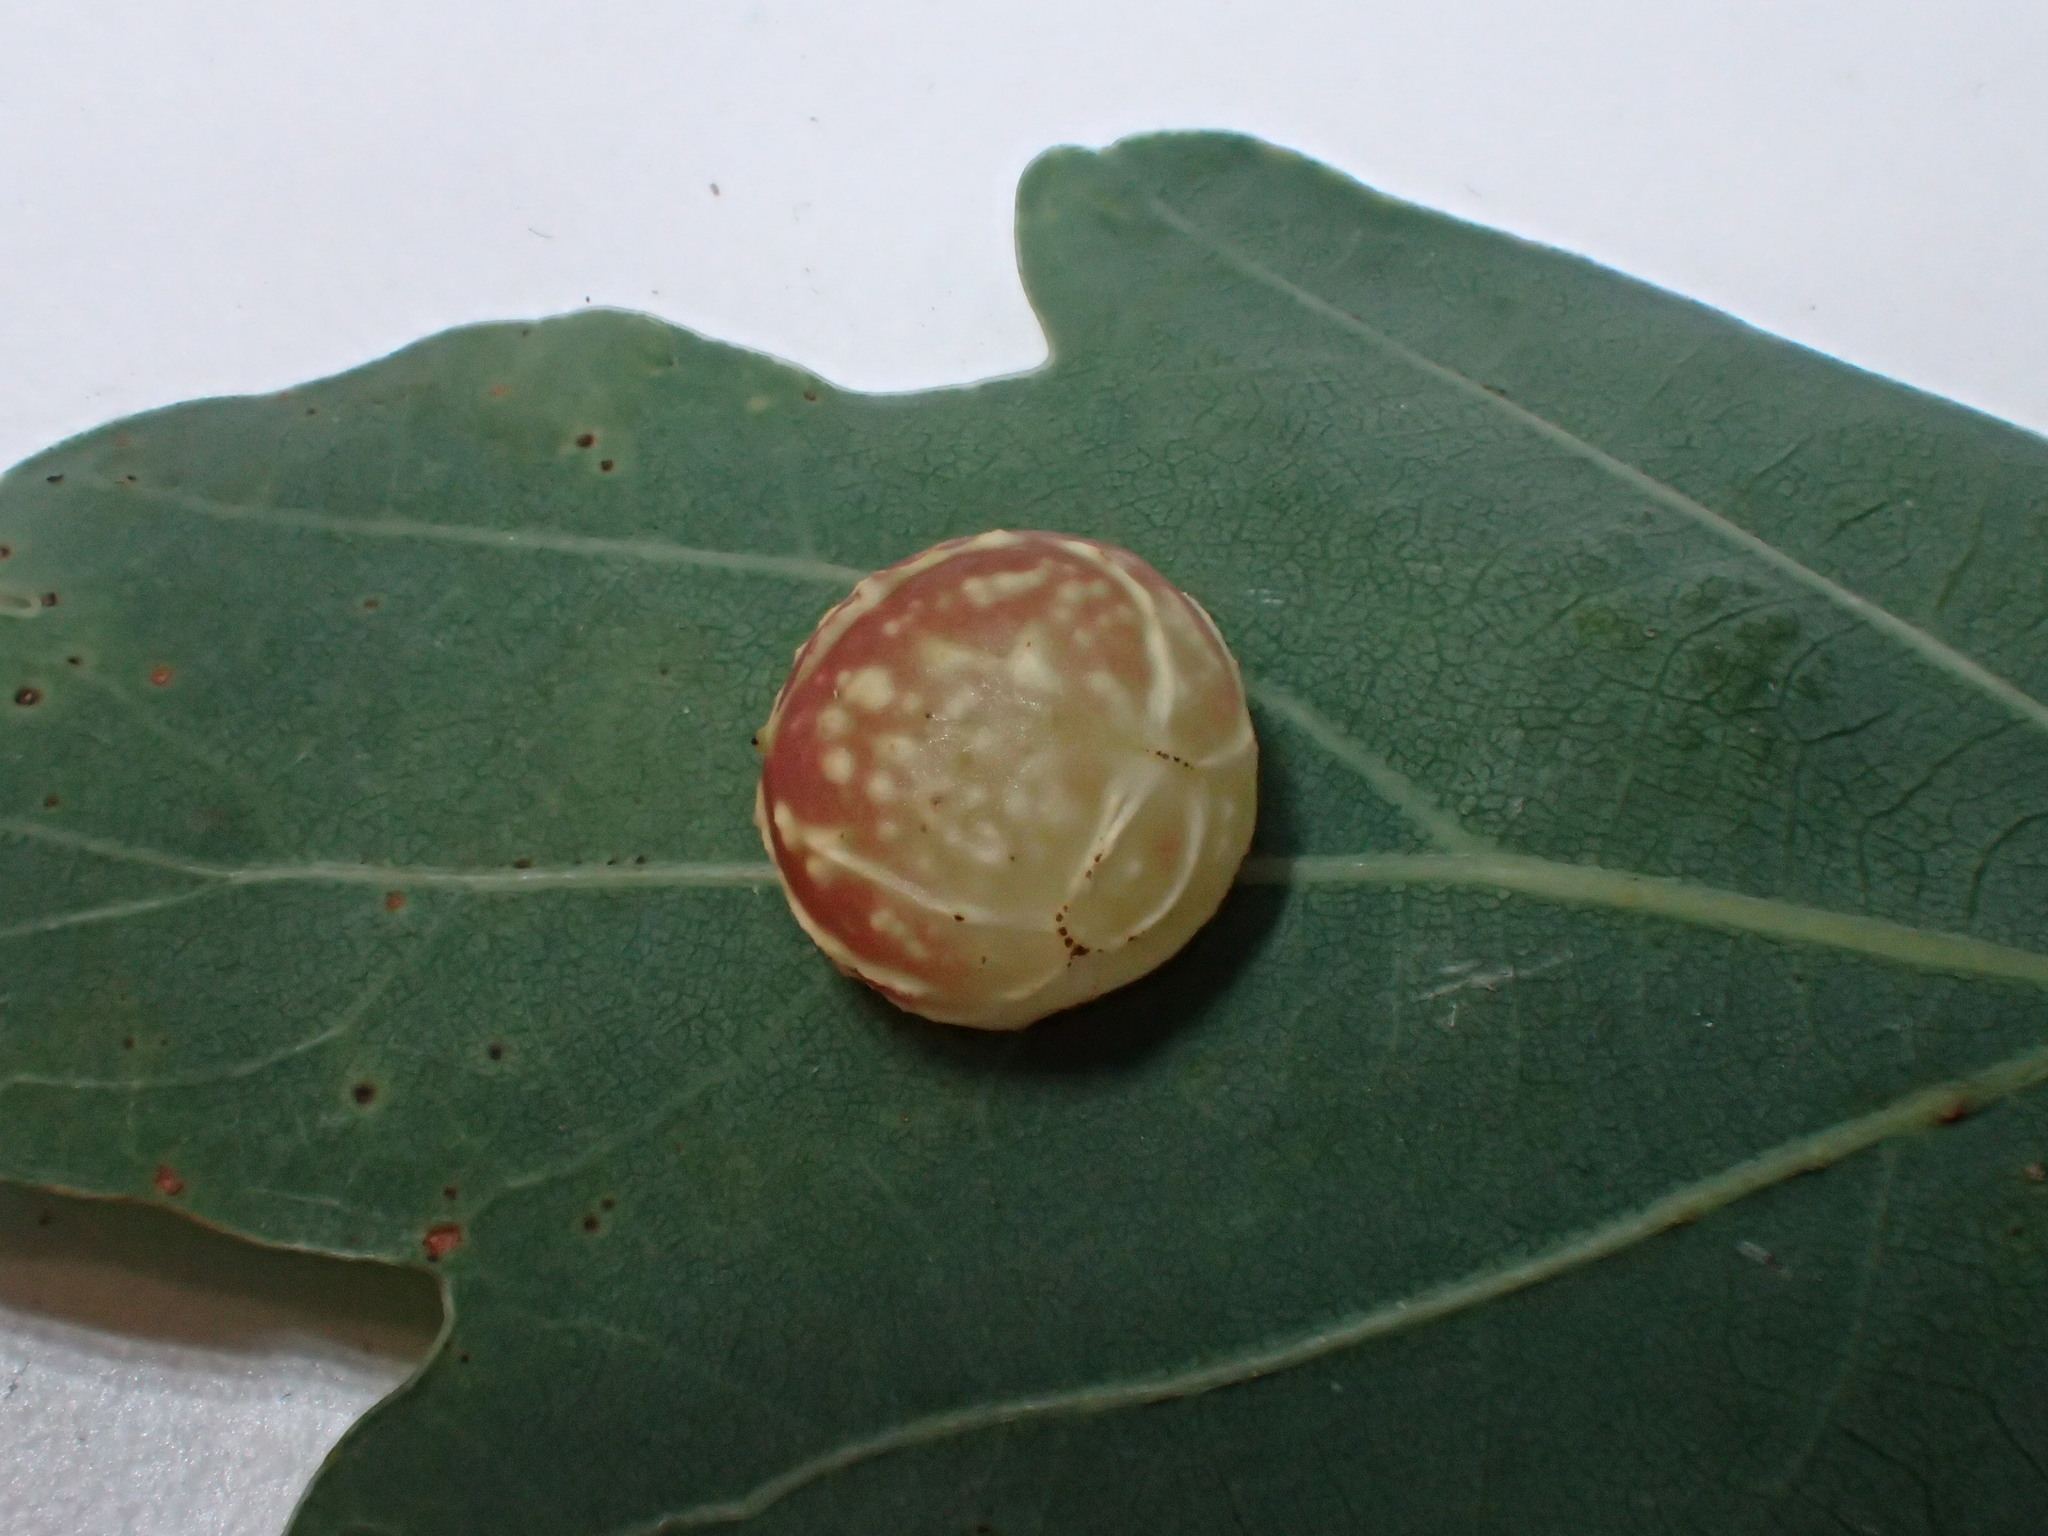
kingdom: Animalia
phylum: Arthropoda
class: Insecta
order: Hymenoptera
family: Cynipidae
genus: Cynips
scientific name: Cynips longiventris
